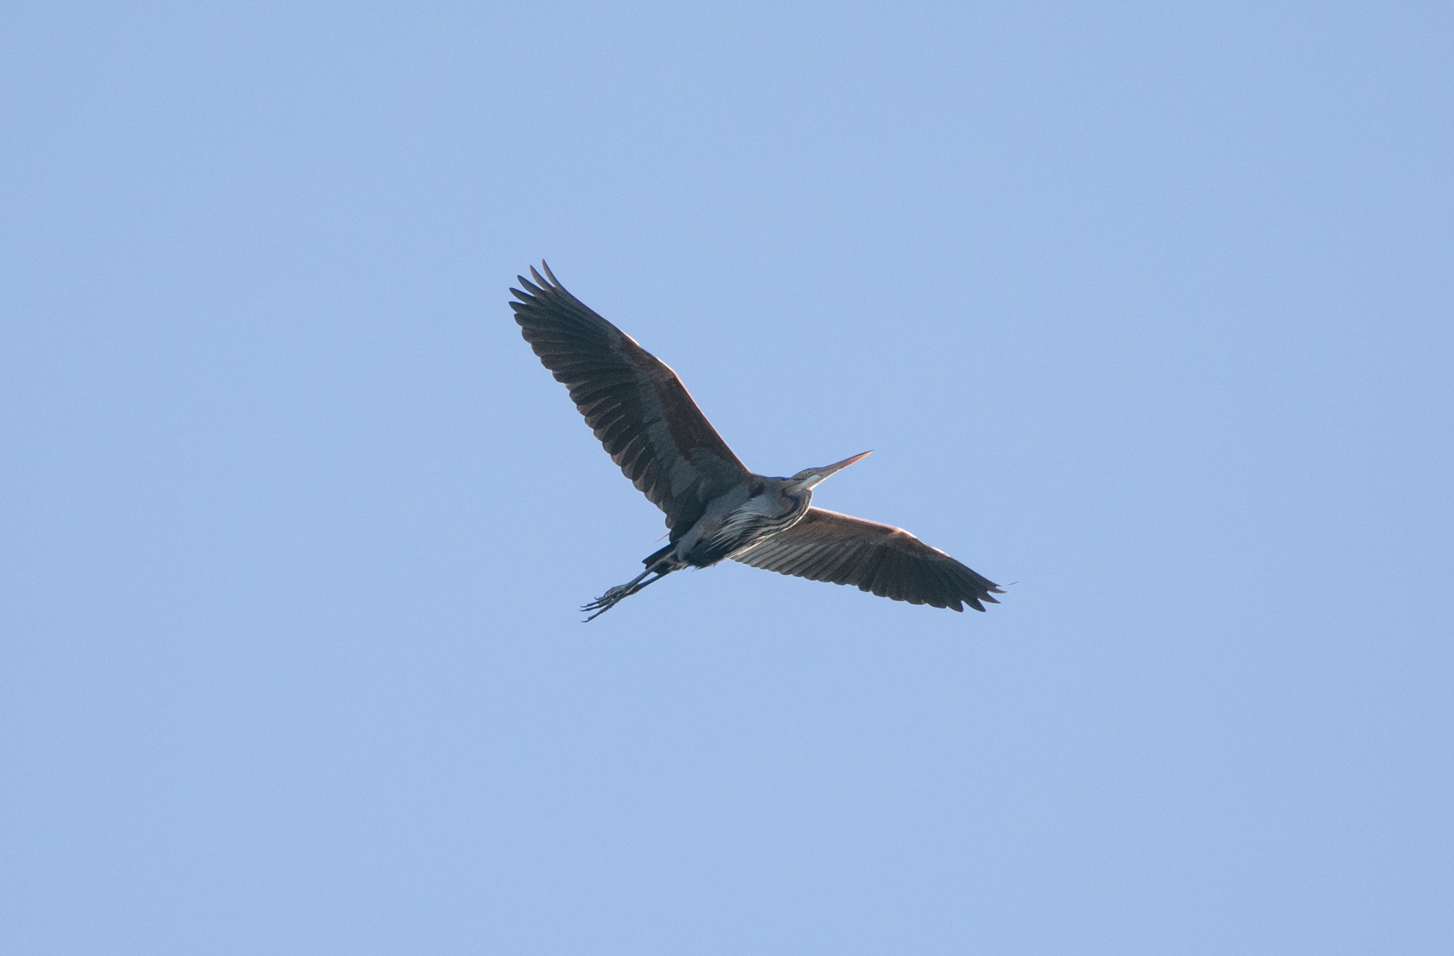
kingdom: Animalia
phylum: Chordata
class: Aves
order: Pelecaniformes
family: Ardeidae
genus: Ardea
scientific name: Ardea purpurea
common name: Purple heron
